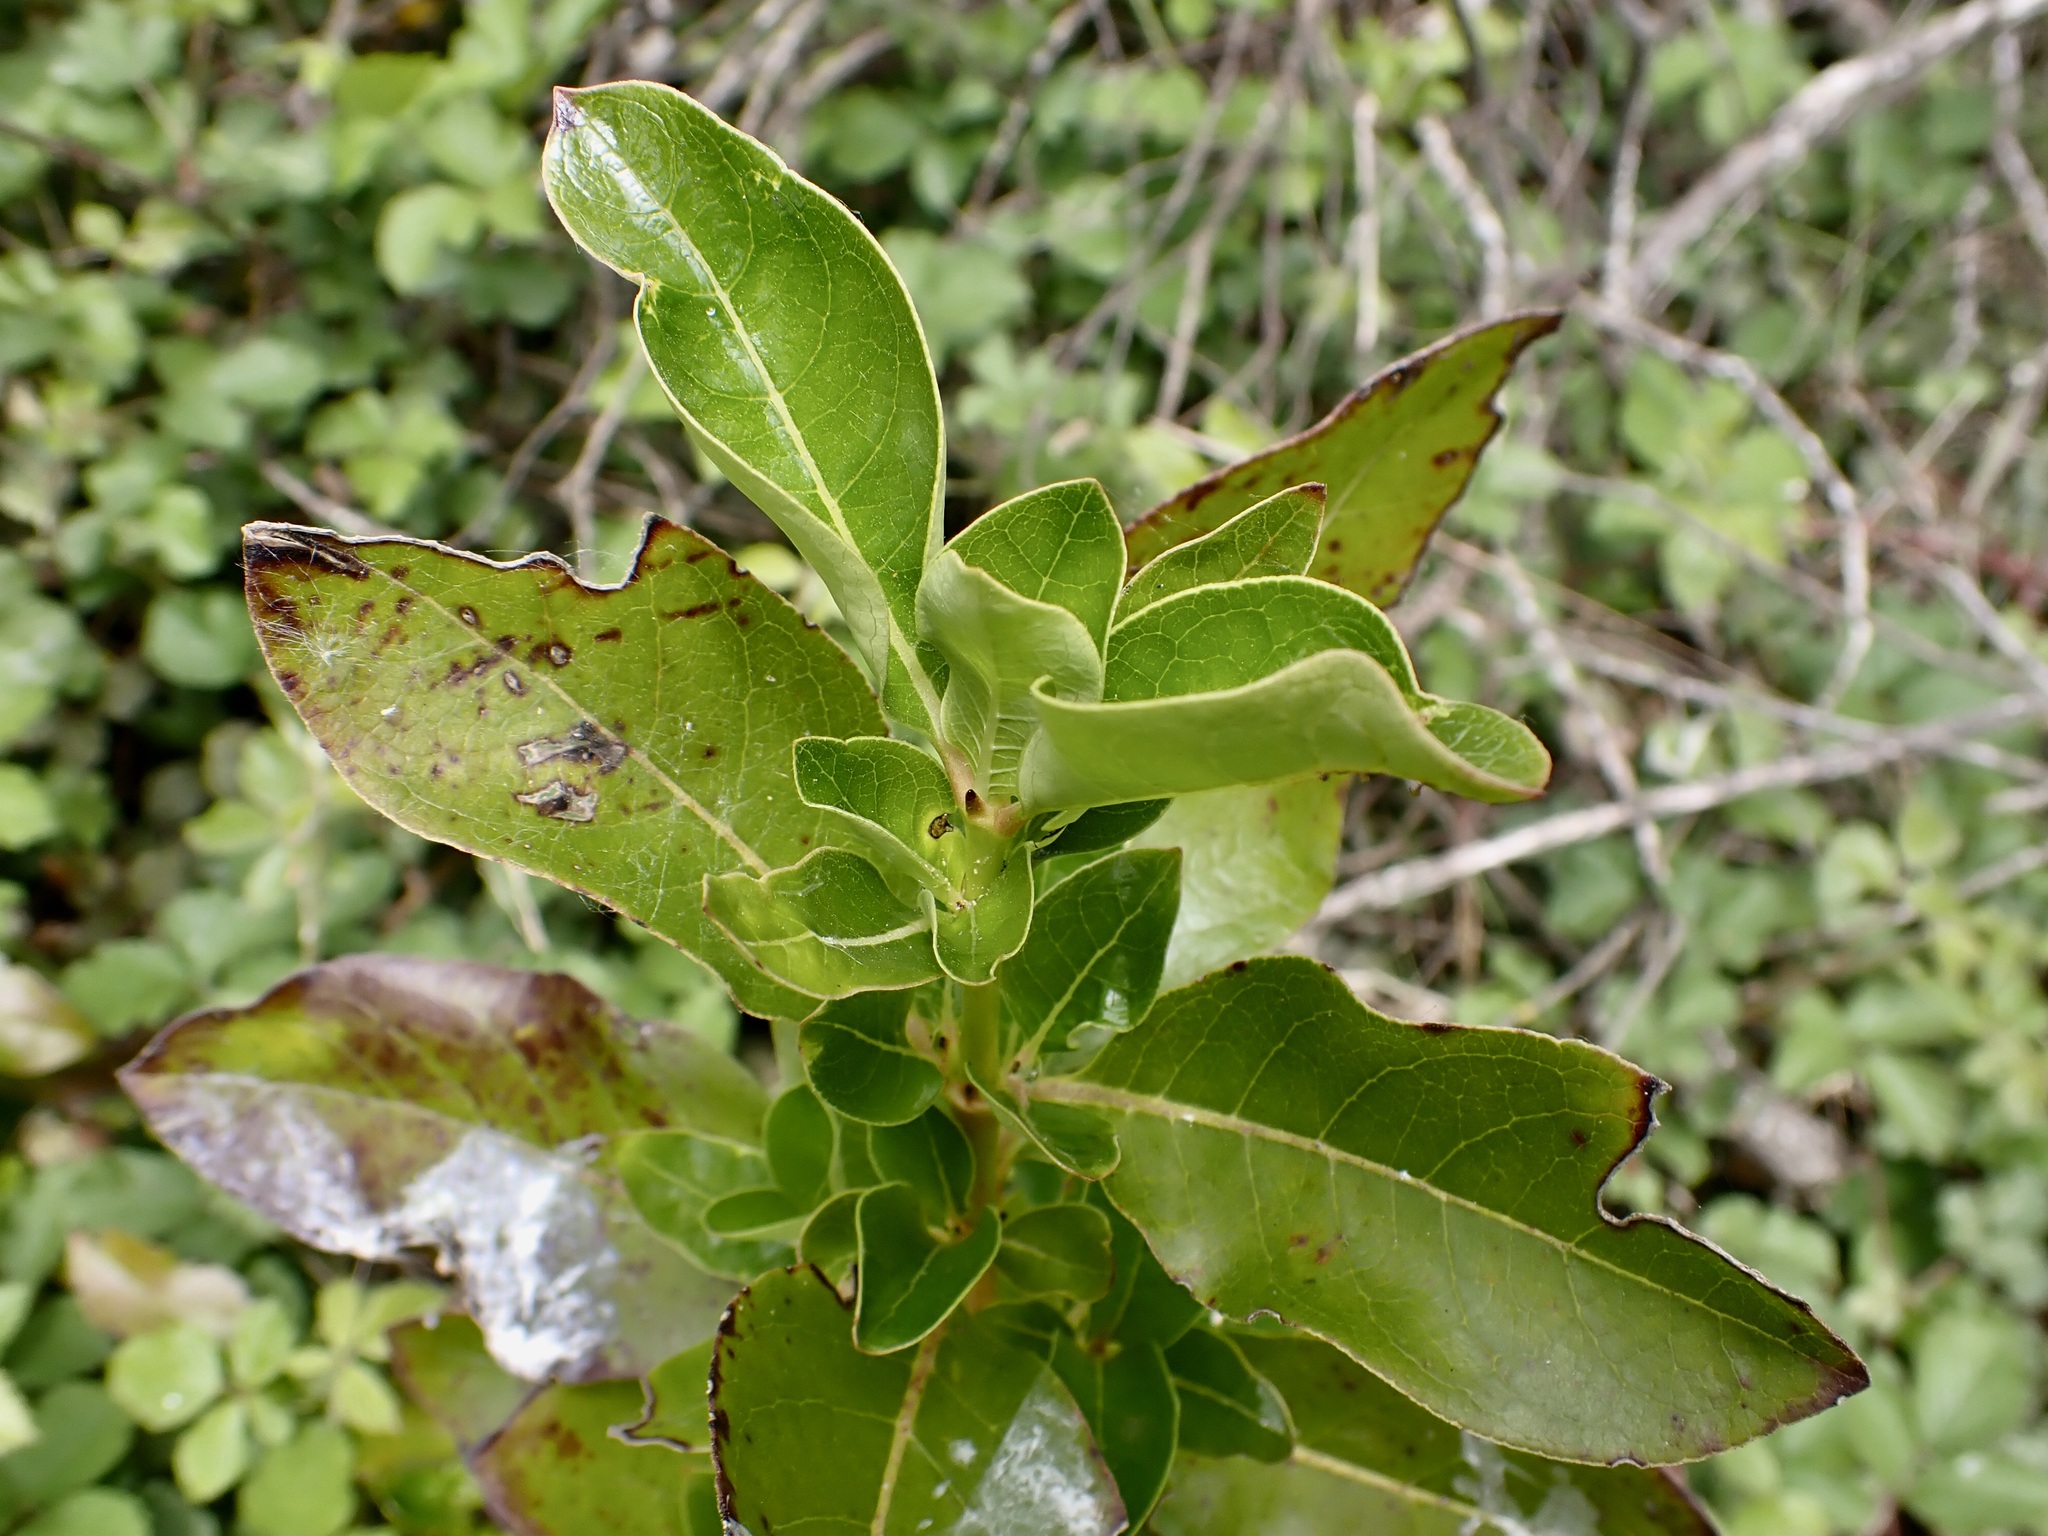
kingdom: Plantae
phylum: Tracheophyta
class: Magnoliopsida
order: Gentianales
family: Rubiaceae
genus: Coprosma
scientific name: Coprosma robusta
